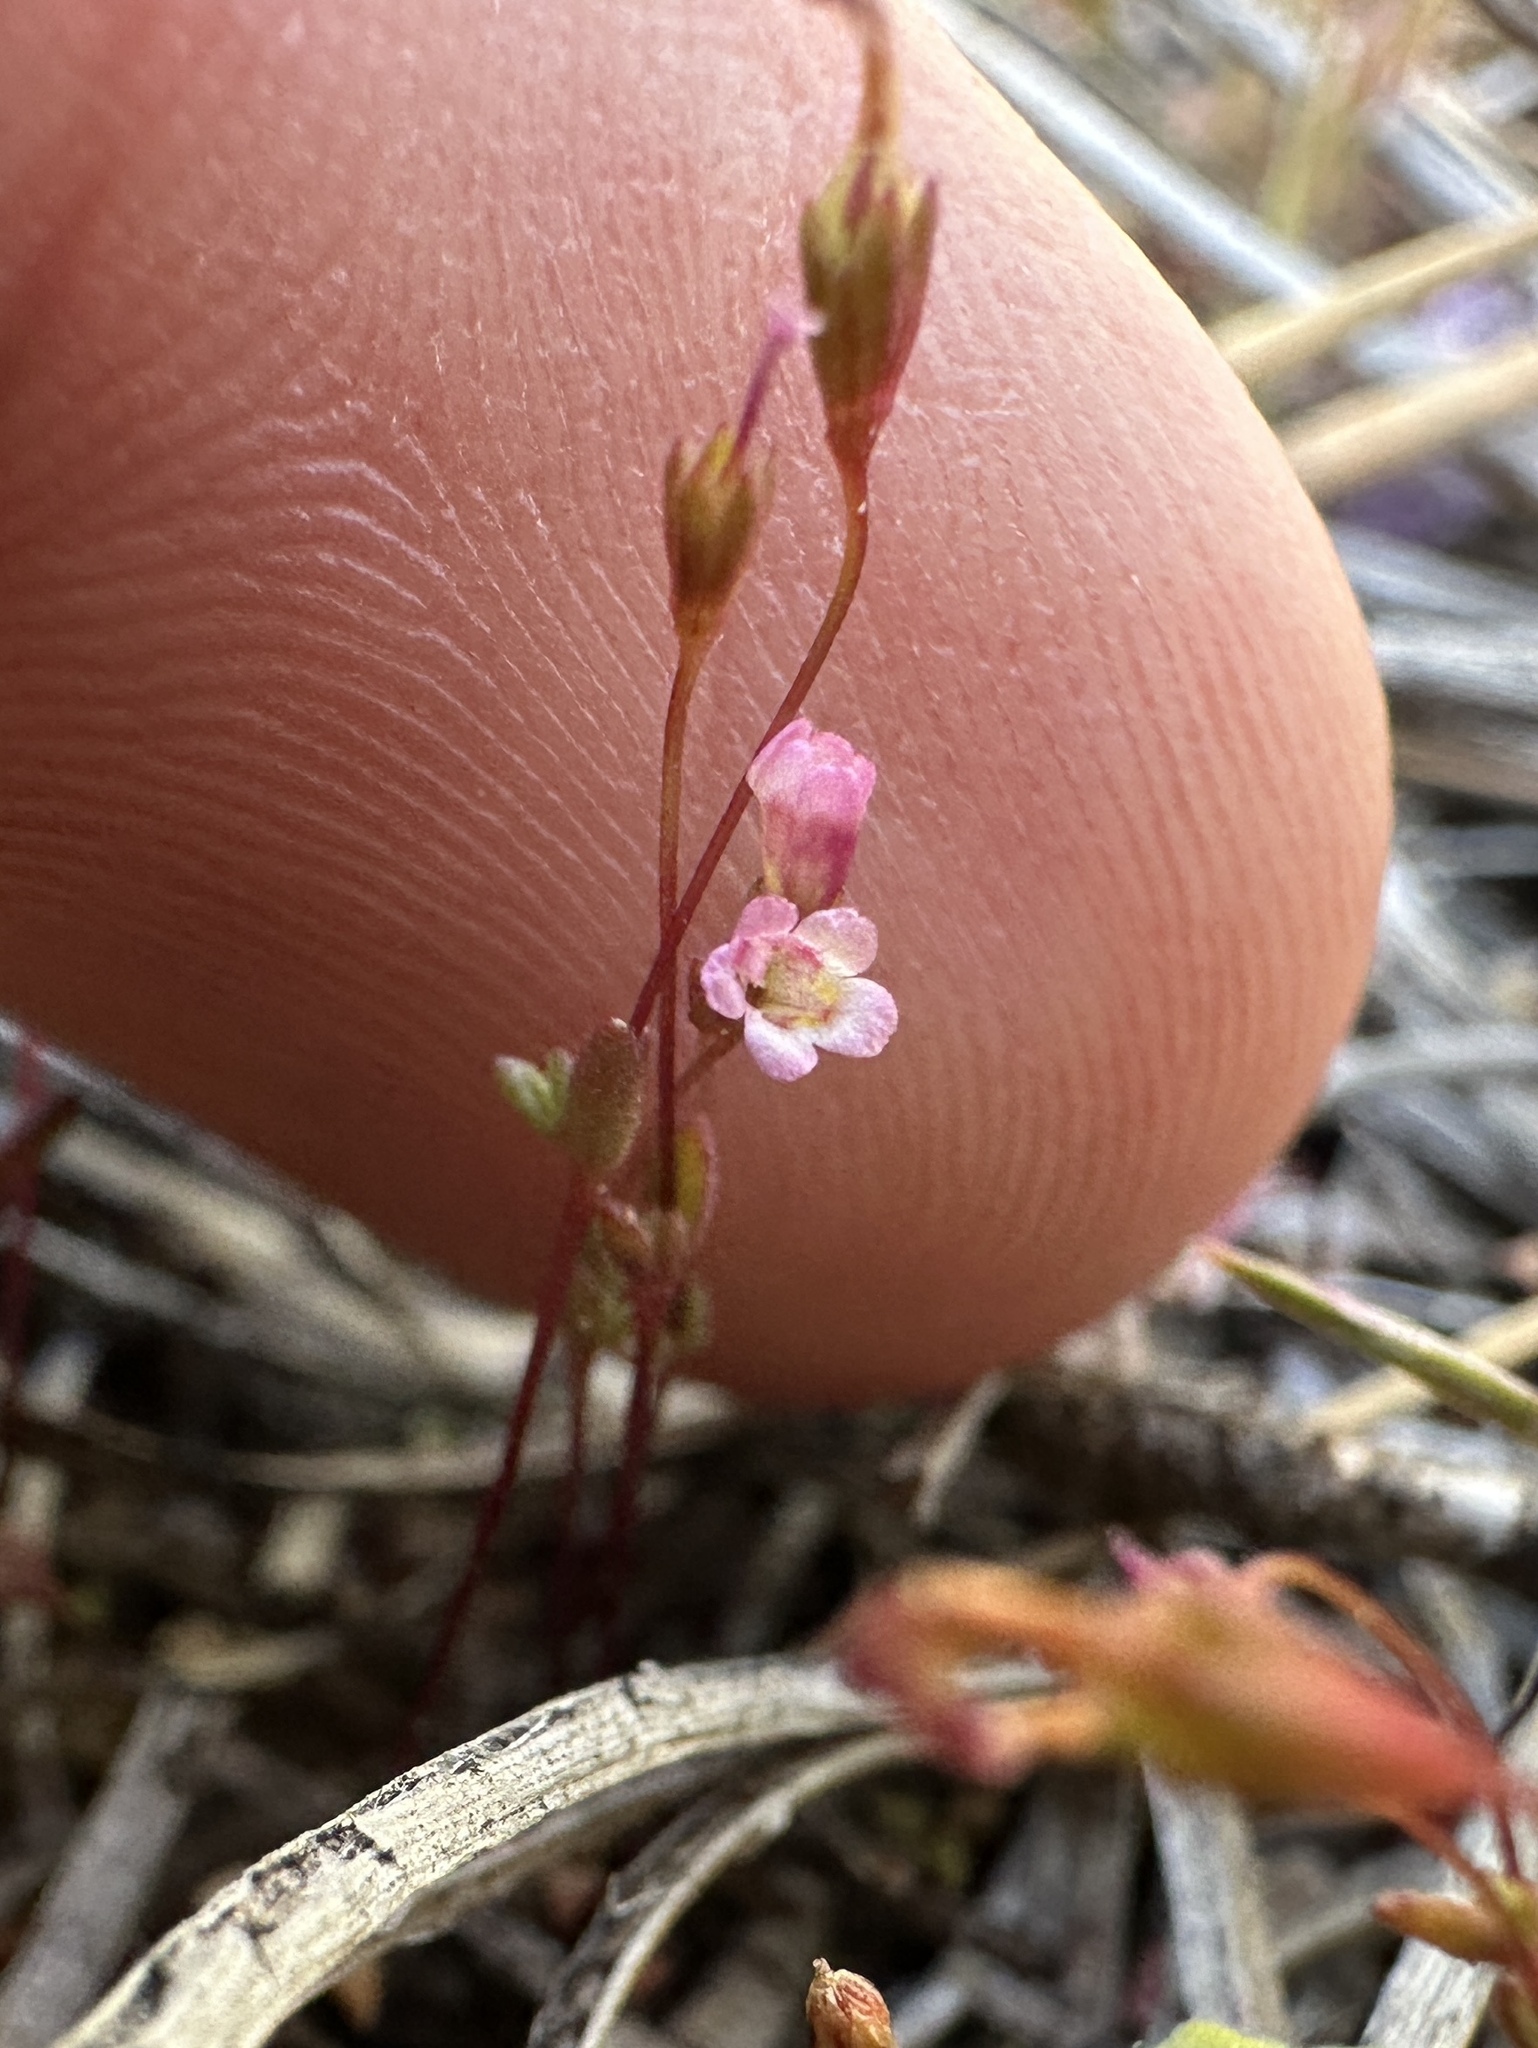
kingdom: Plantae
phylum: Tracheophyta
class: Magnoliopsida
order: Lamiales
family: Phrymaceae
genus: Erythranthe
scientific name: Erythranthe exigua
